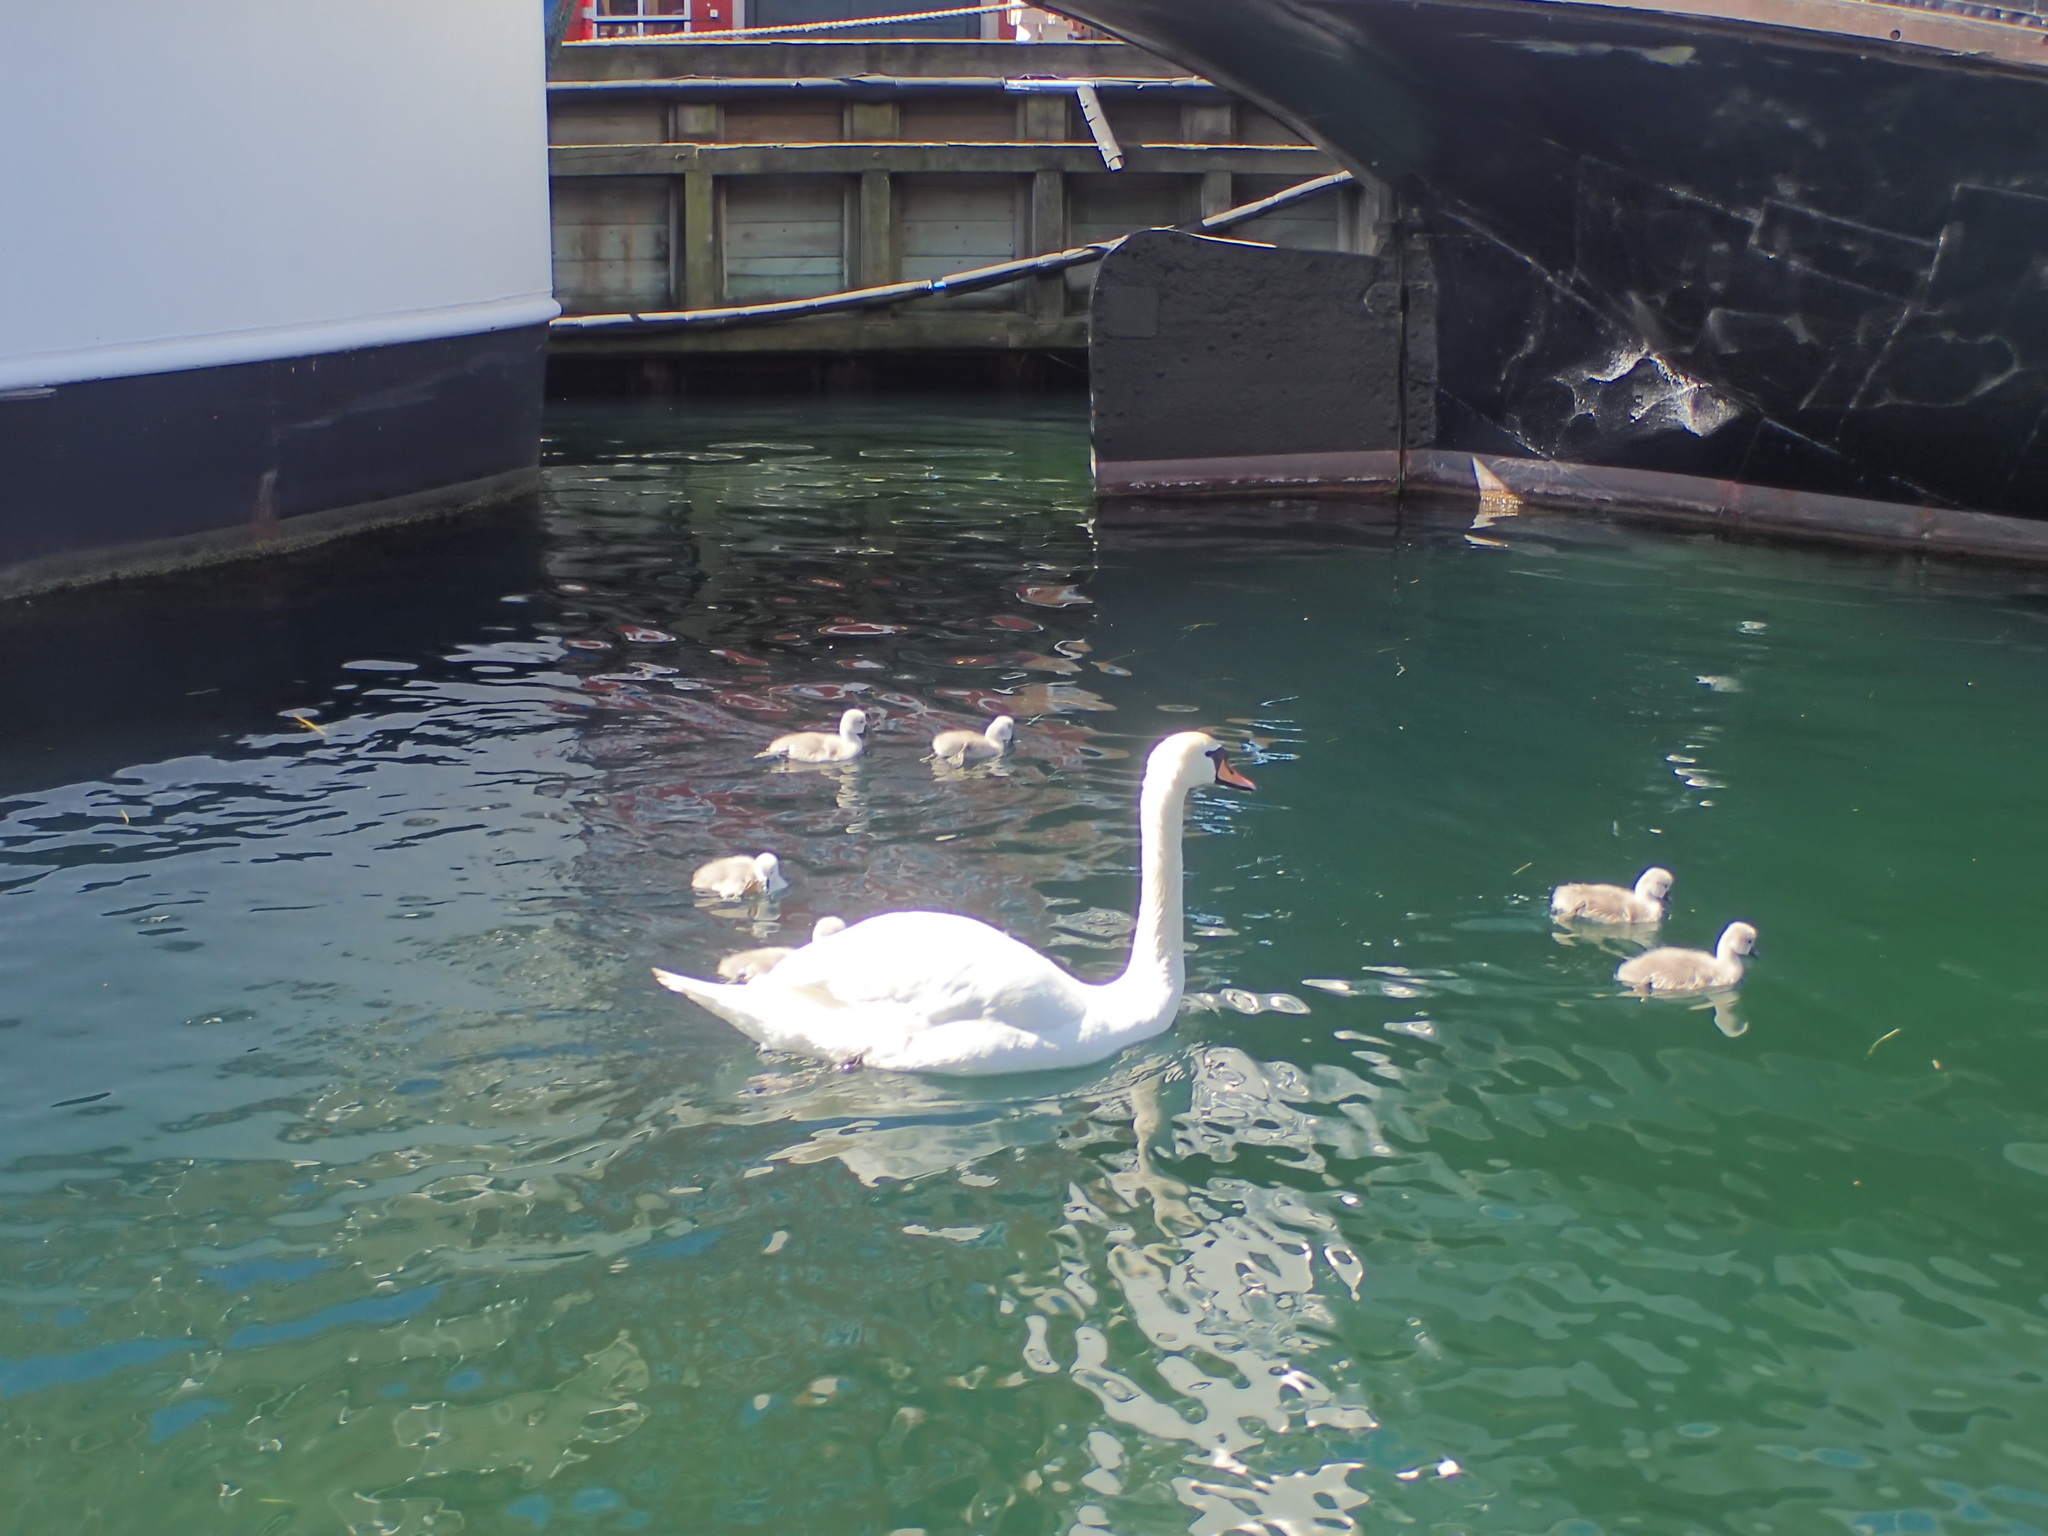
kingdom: Animalia
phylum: Chordata
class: Aves
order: Anseriformes
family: Anatidae
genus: Cygnus
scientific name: Cygnus olor
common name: Mute swan
